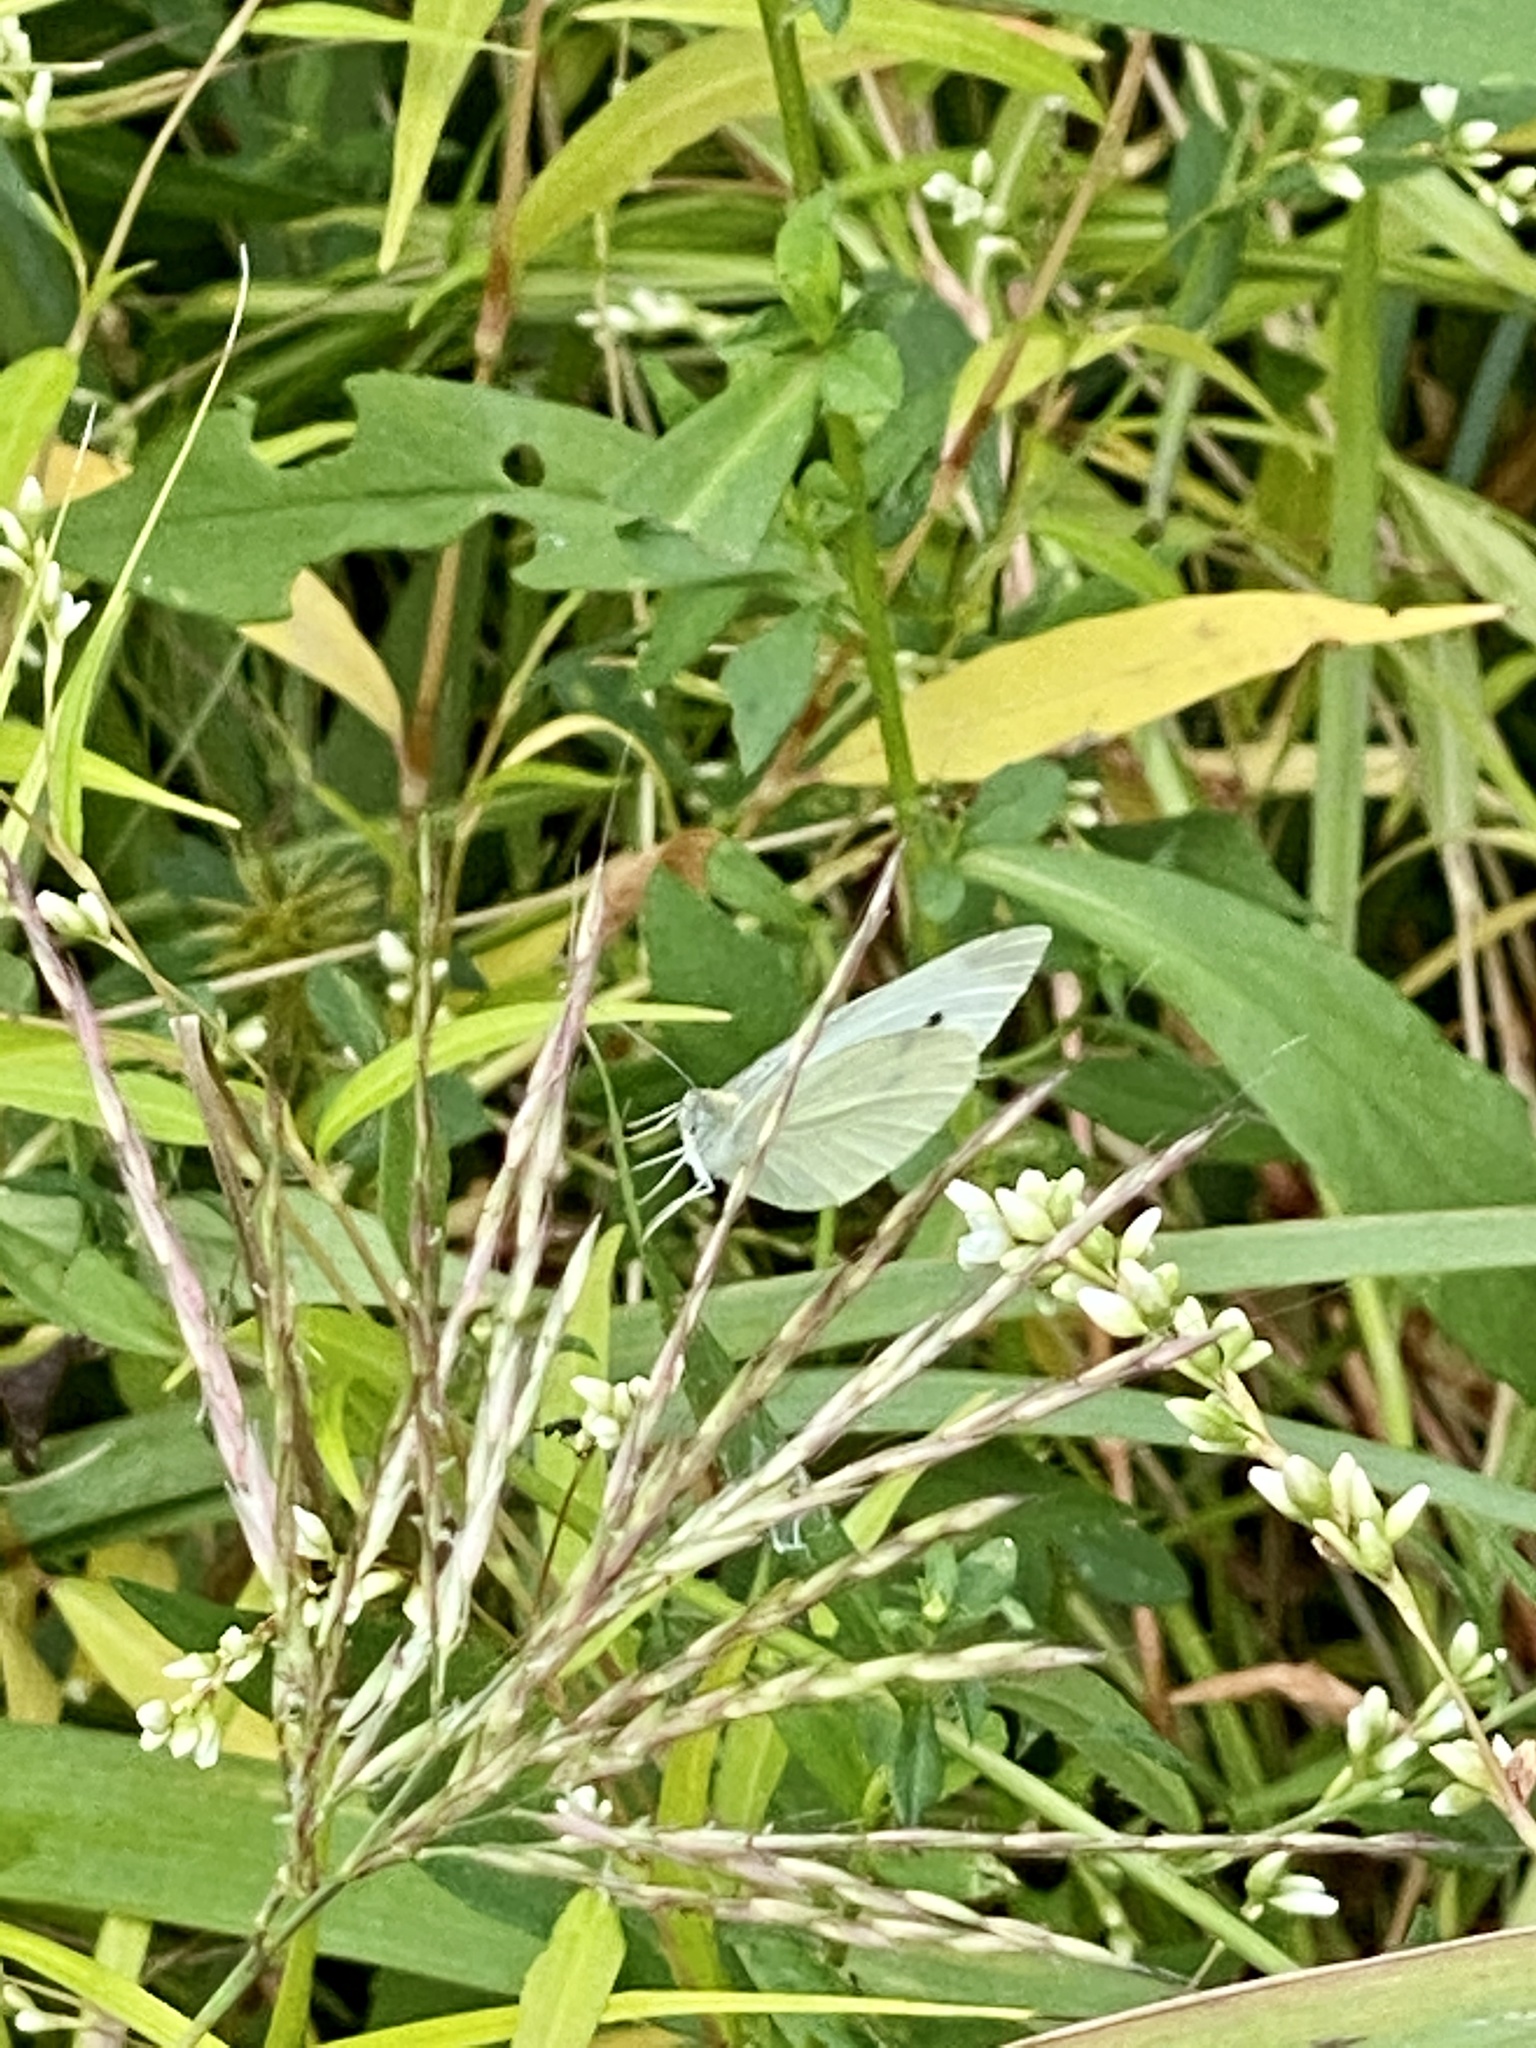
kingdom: Animalia
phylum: Arthropoda
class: Insecta
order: Lepidoptera
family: Pieridae
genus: Pieris
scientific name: Pieris rapae
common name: Small white
